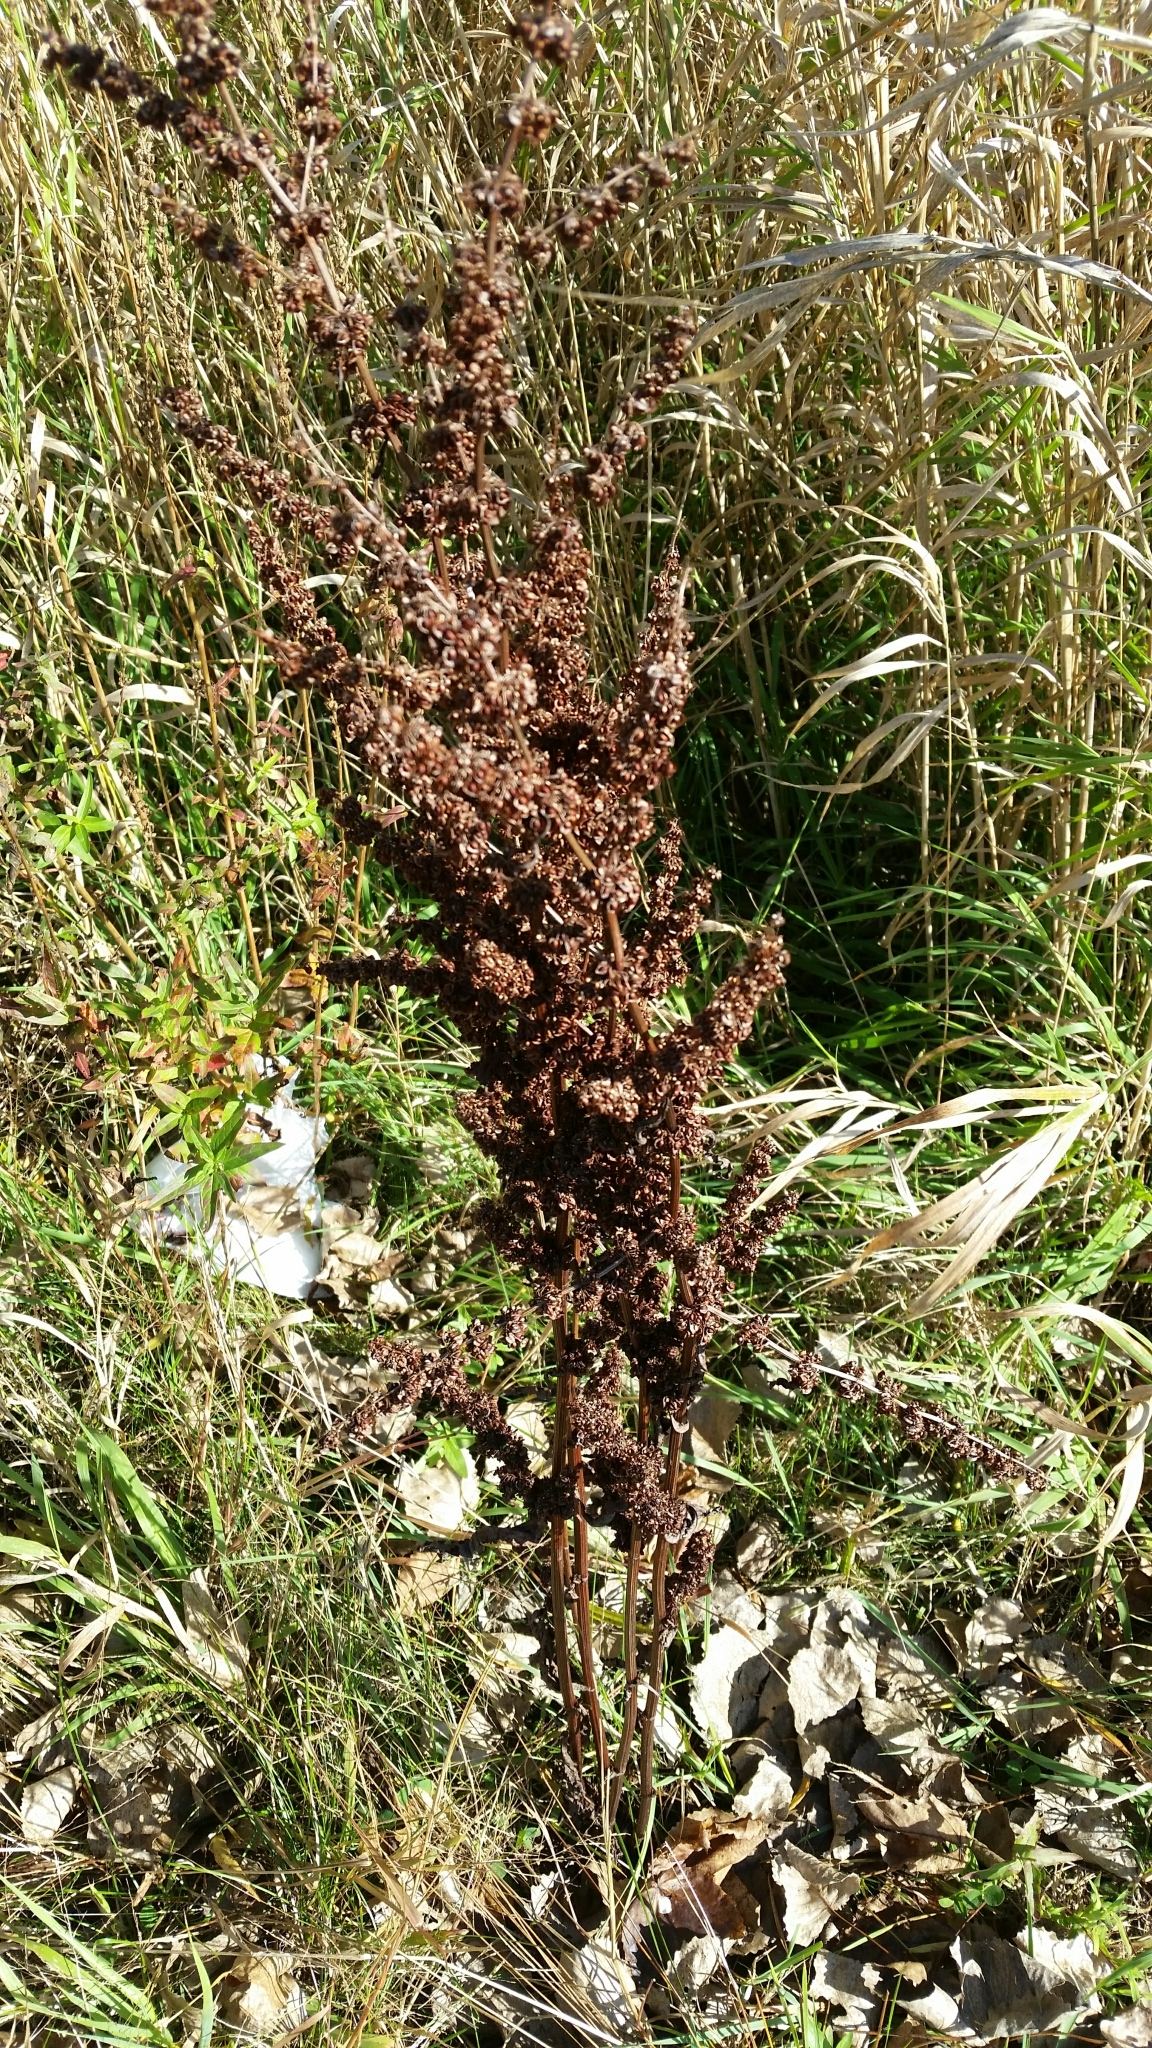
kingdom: Plantae
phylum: Tracheophyta
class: Magnoliopsida
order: Caryophyllales
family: Polygonaceae
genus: Rumex
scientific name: Rumex crispus
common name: Curled dock
